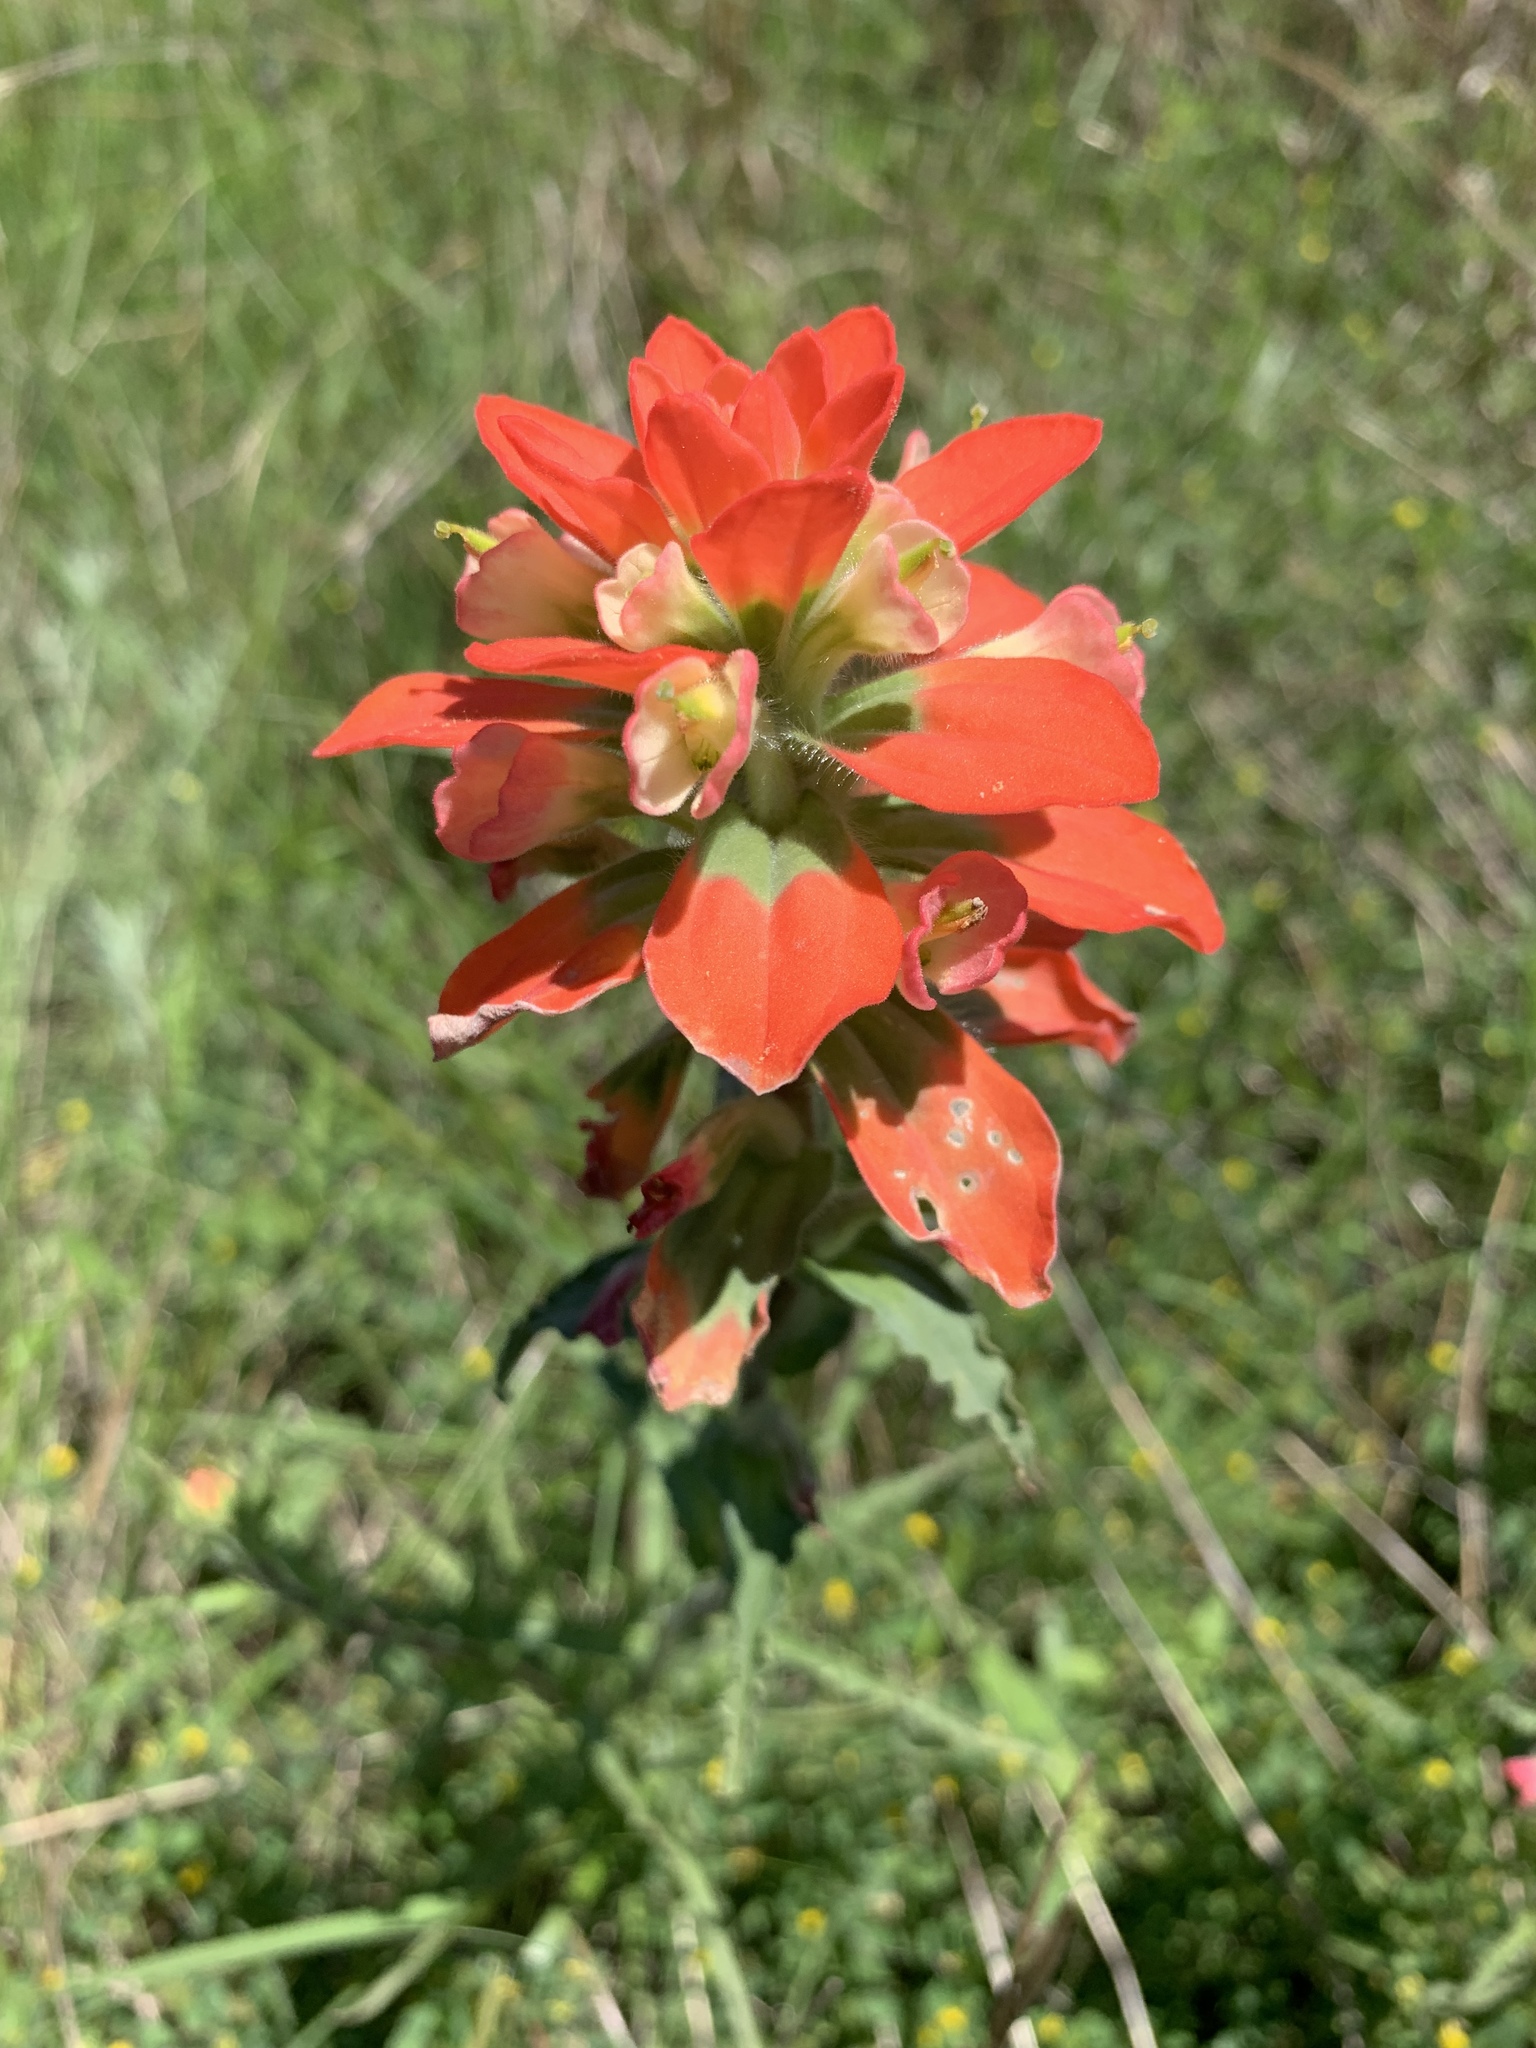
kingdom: Plantae
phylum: Tracheophyta
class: Magnoliopsida
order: Lamiales
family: Orobanchaceae
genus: Castilleja
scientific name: Castilleja indivisa
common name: Texas paintbrush
